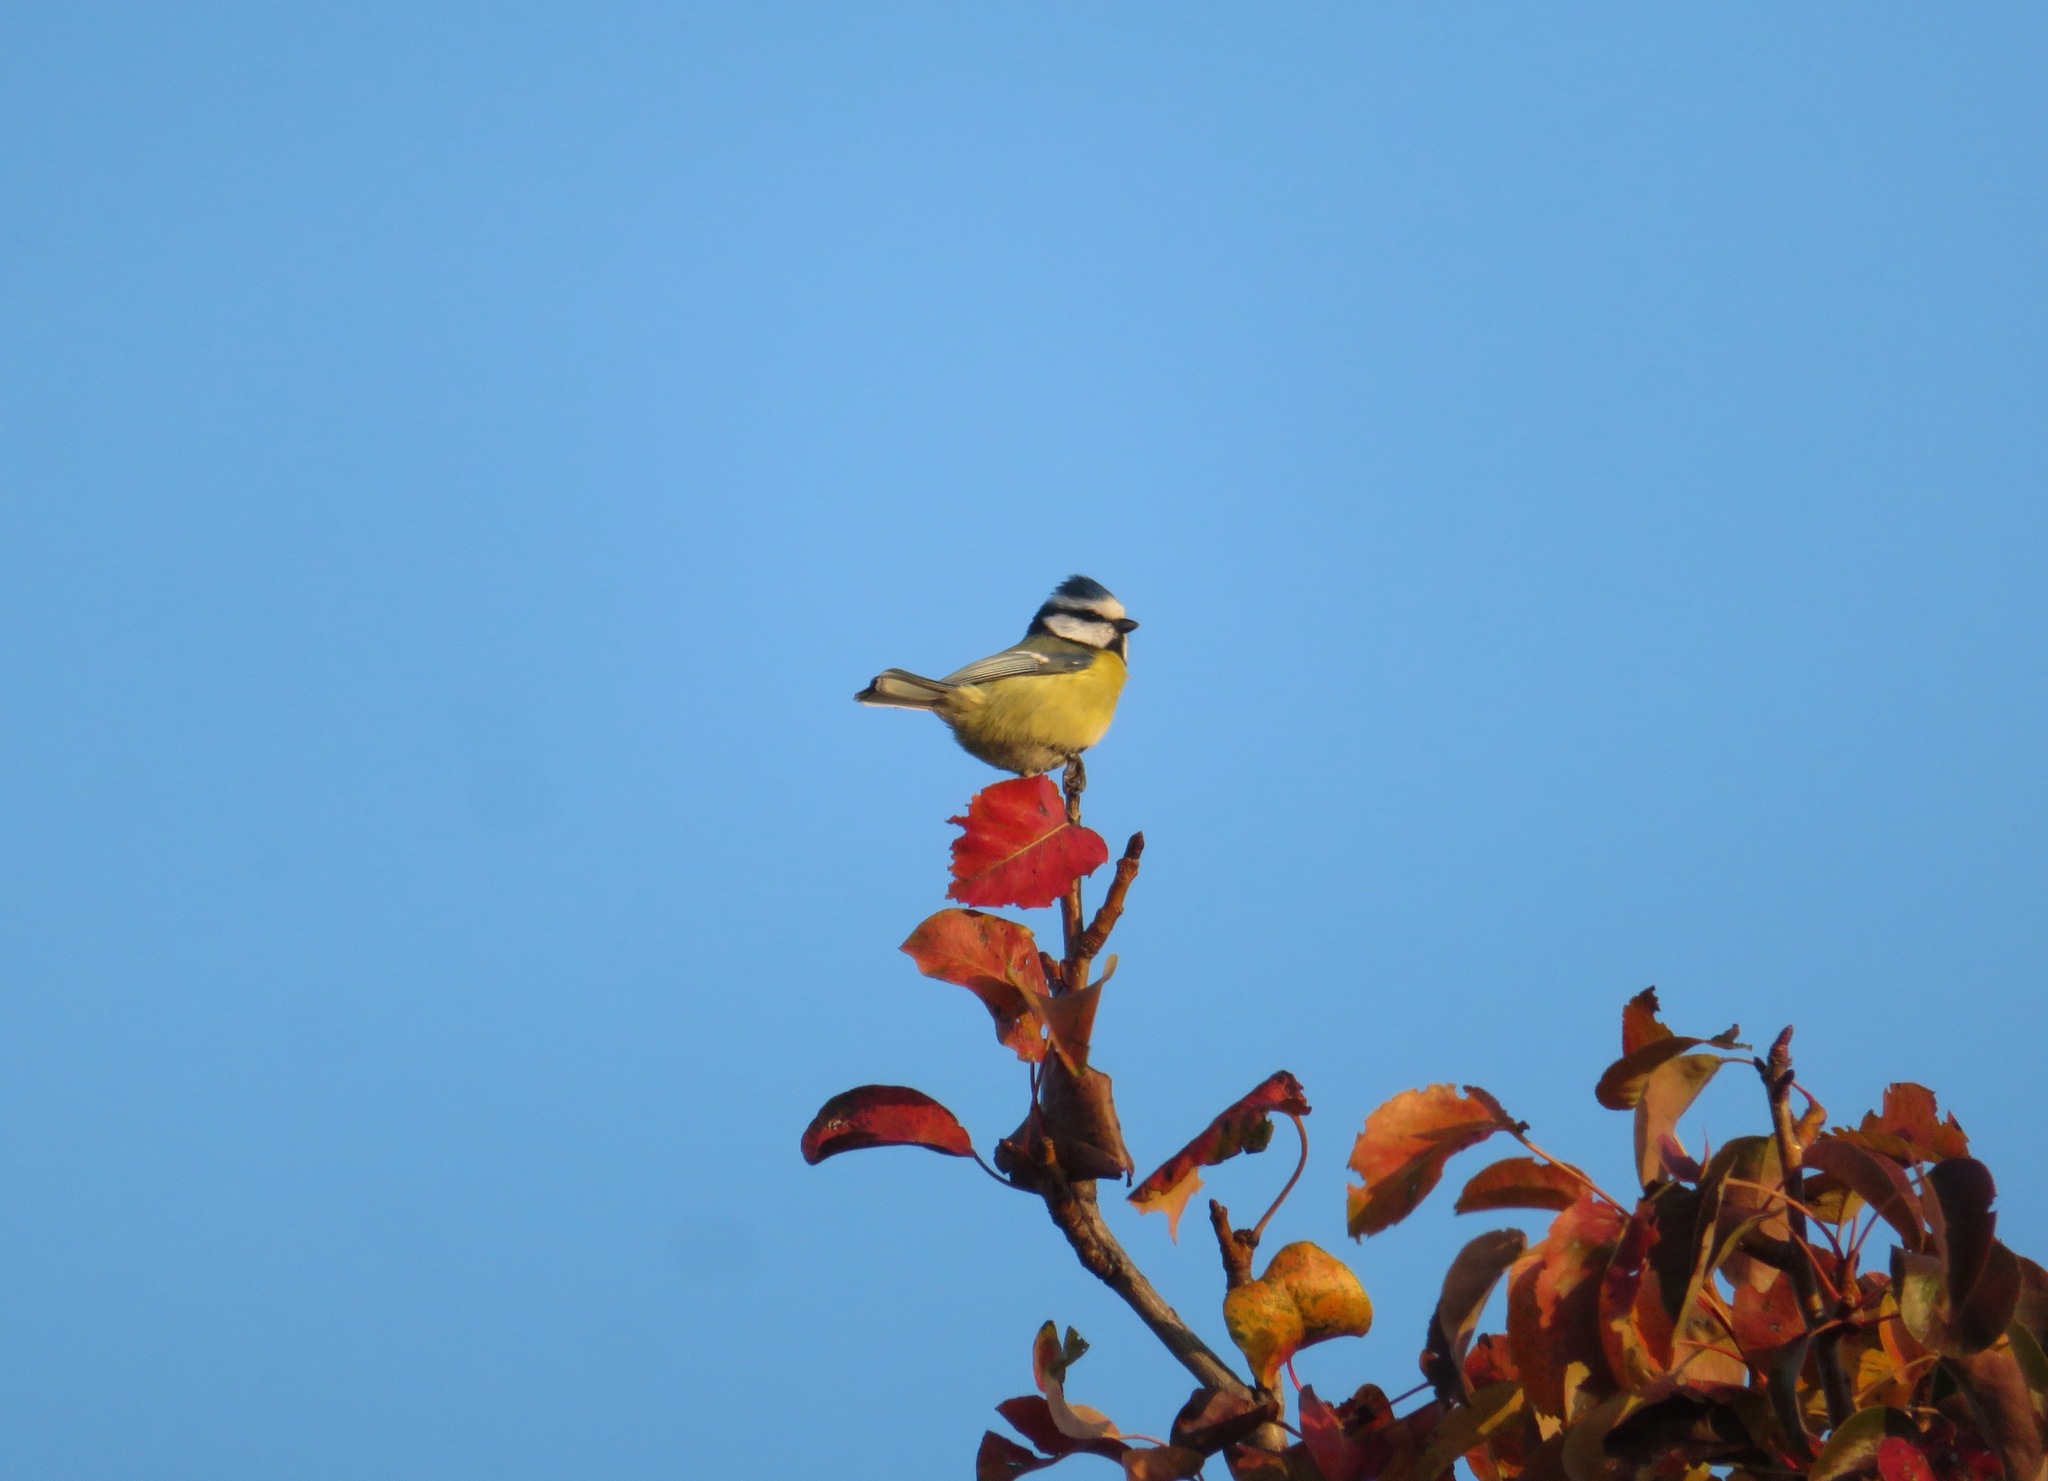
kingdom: Animalia
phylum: Chordata
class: Aves
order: Passeriformes
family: Paridae
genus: Cyanistes
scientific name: Cyanistes caeruleus
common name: Eurasian blue tit
